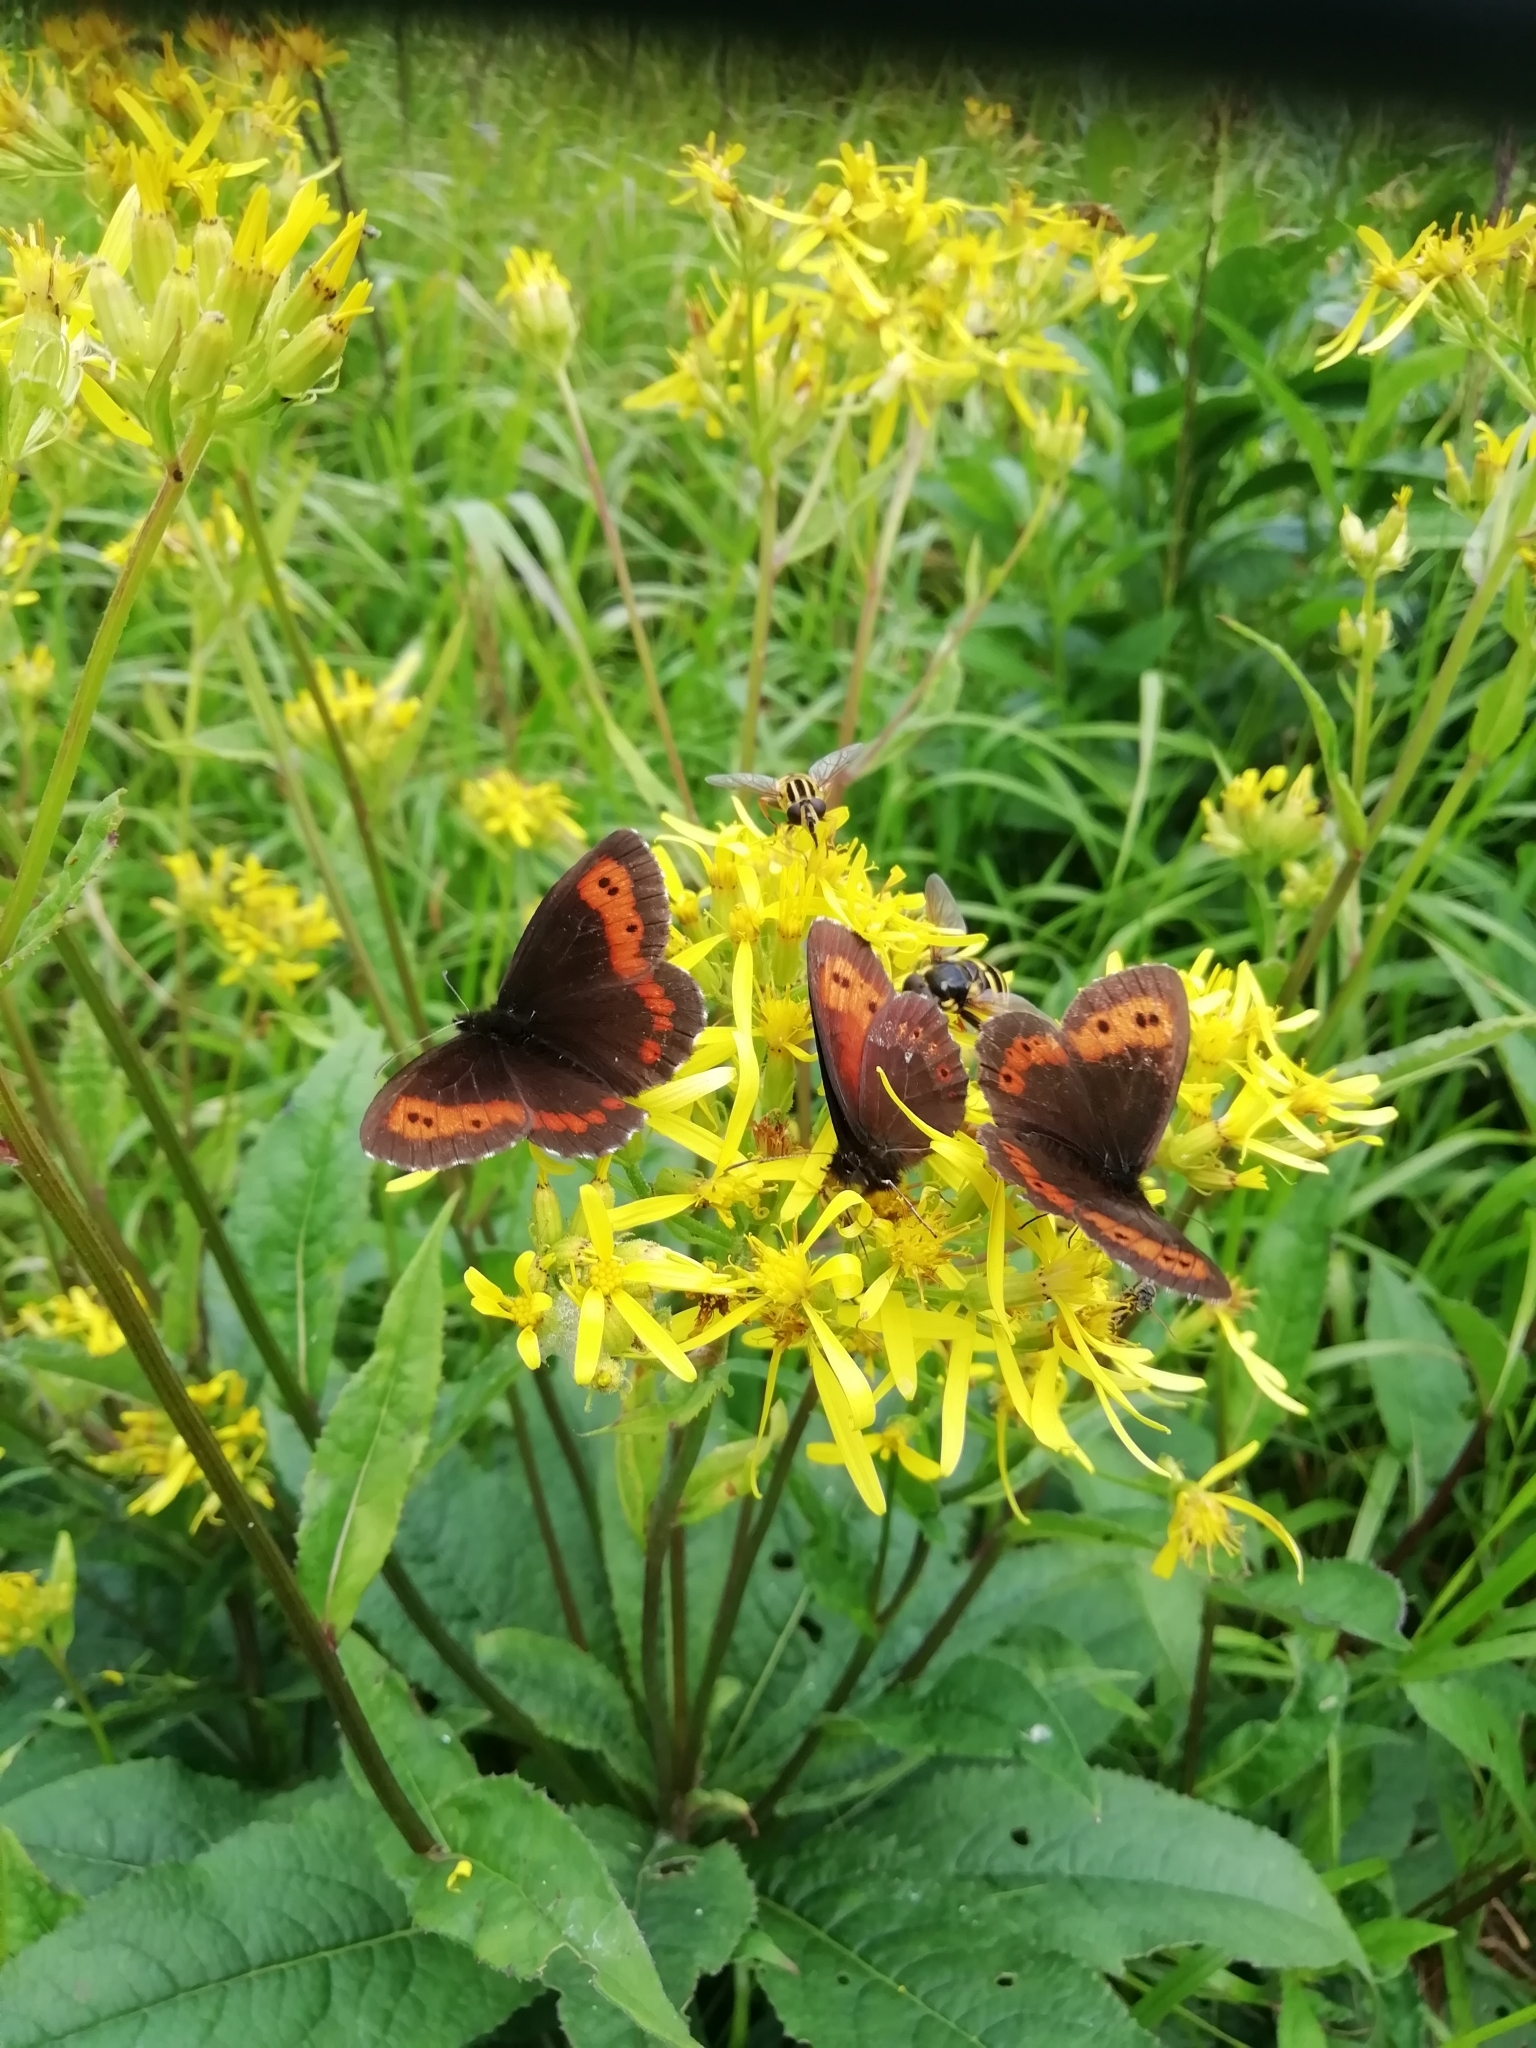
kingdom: Animalia
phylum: Arthropoda
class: Insecta
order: Lepidoptera
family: Nymphalidae
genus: Erebia
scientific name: Erebia ligea
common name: Arran brown
